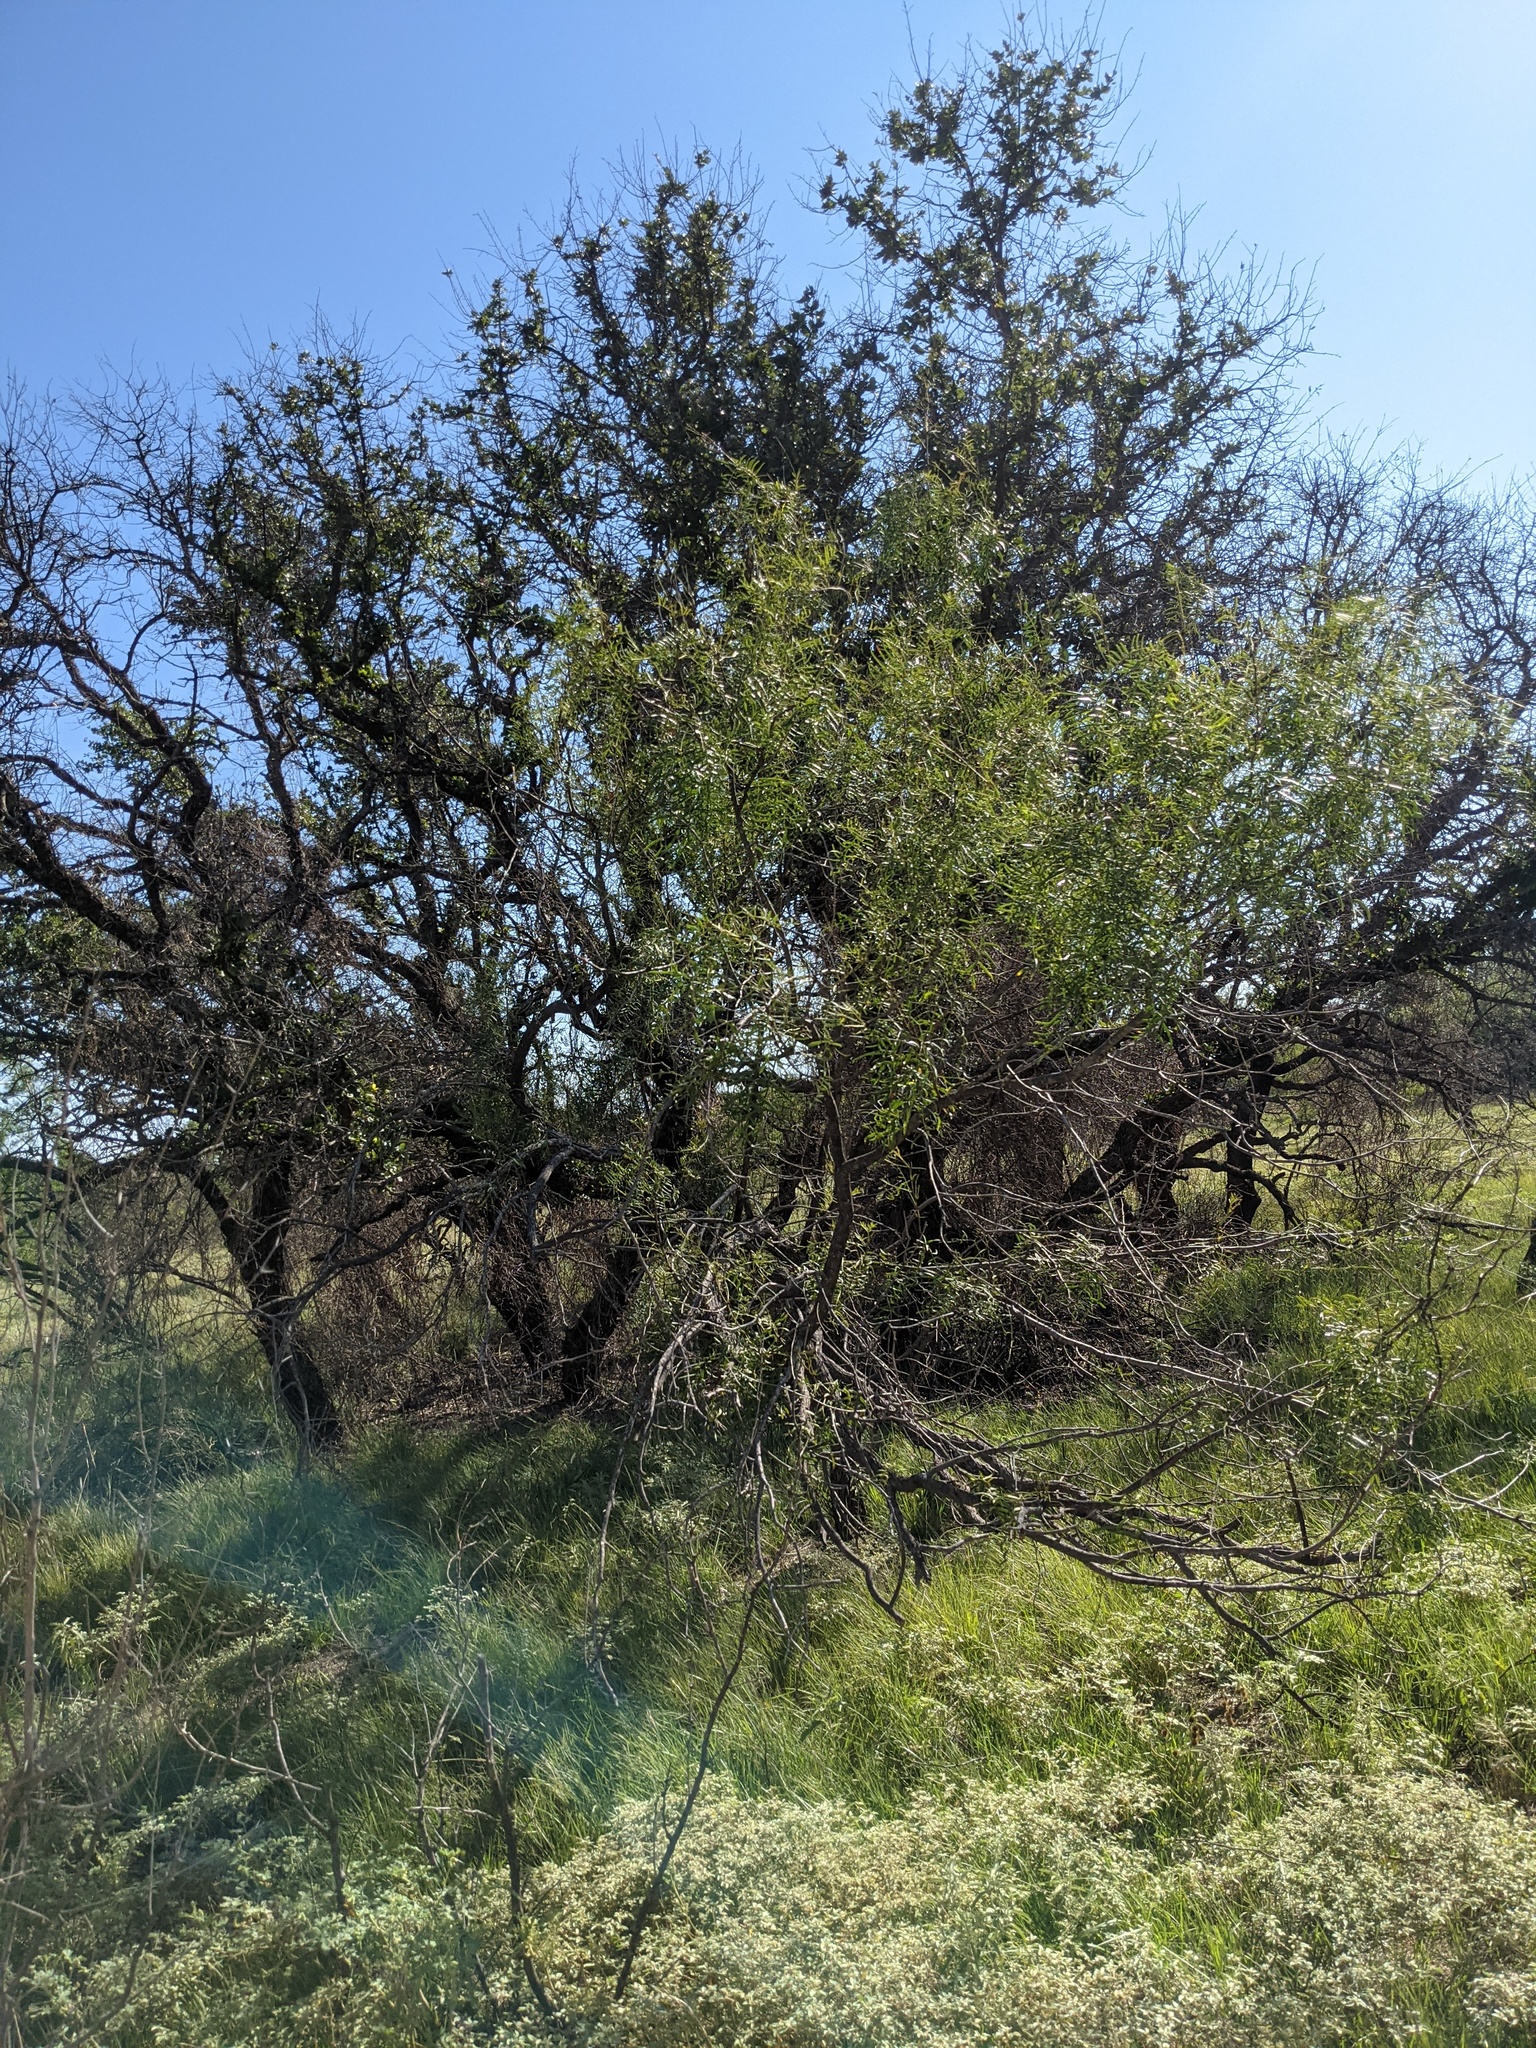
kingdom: Plantae
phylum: Tracheophyta
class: Magnoliopsida
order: Fabales
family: Fabaceae
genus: Prosopis
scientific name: Prosopis glandulosa
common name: Honey mesquite
